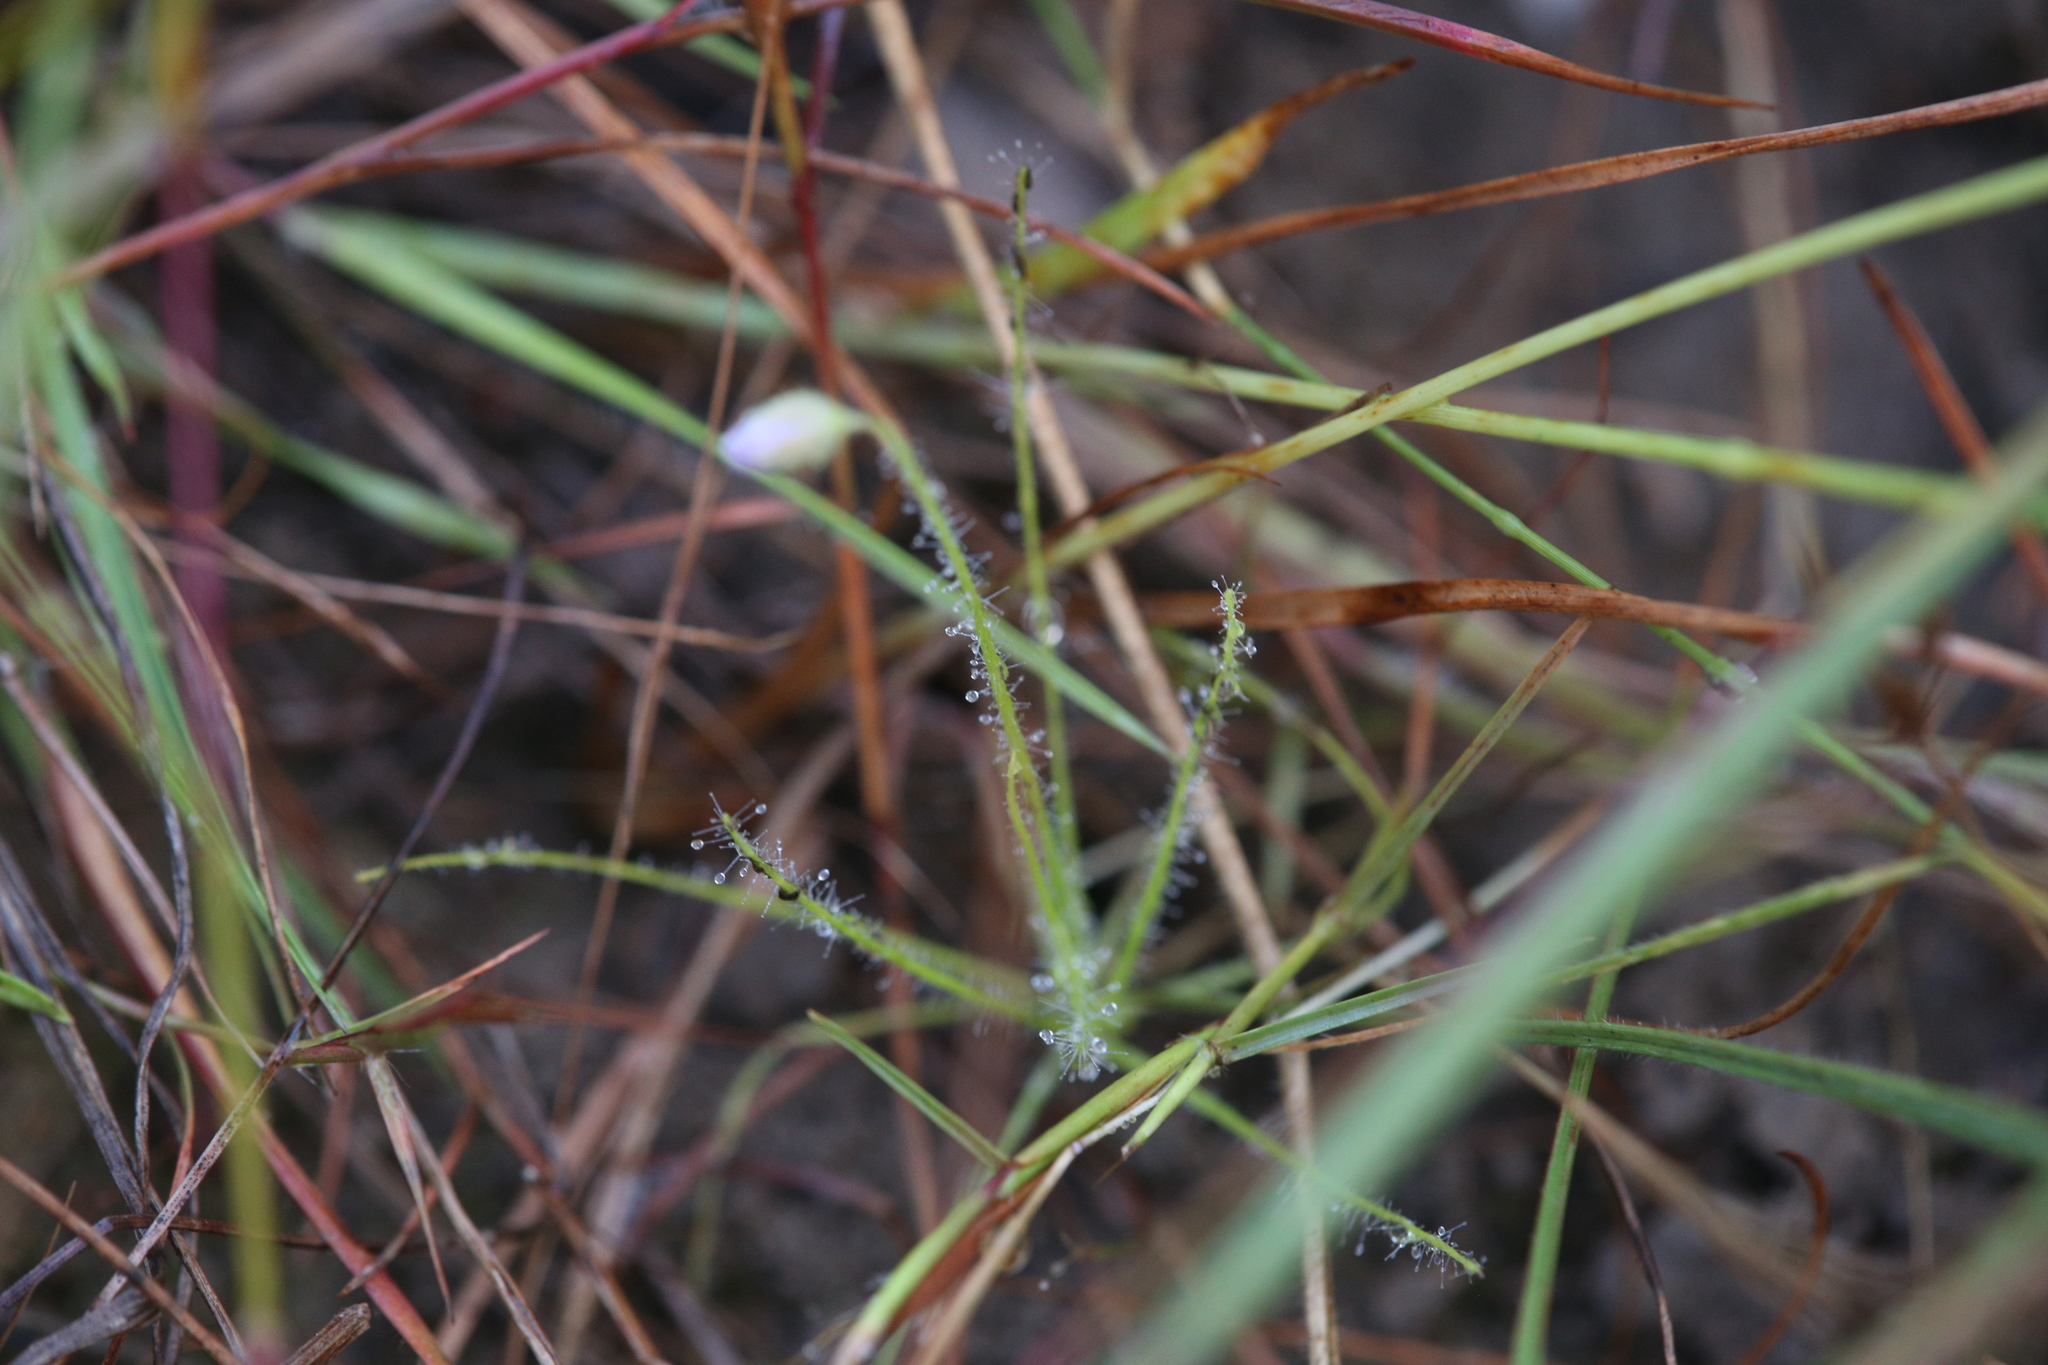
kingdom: Plantae
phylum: Tracheophyta
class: Magnoliopsida
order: Lamiales
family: Byblidaceae
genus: Byblis
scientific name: Byblis liniflora
